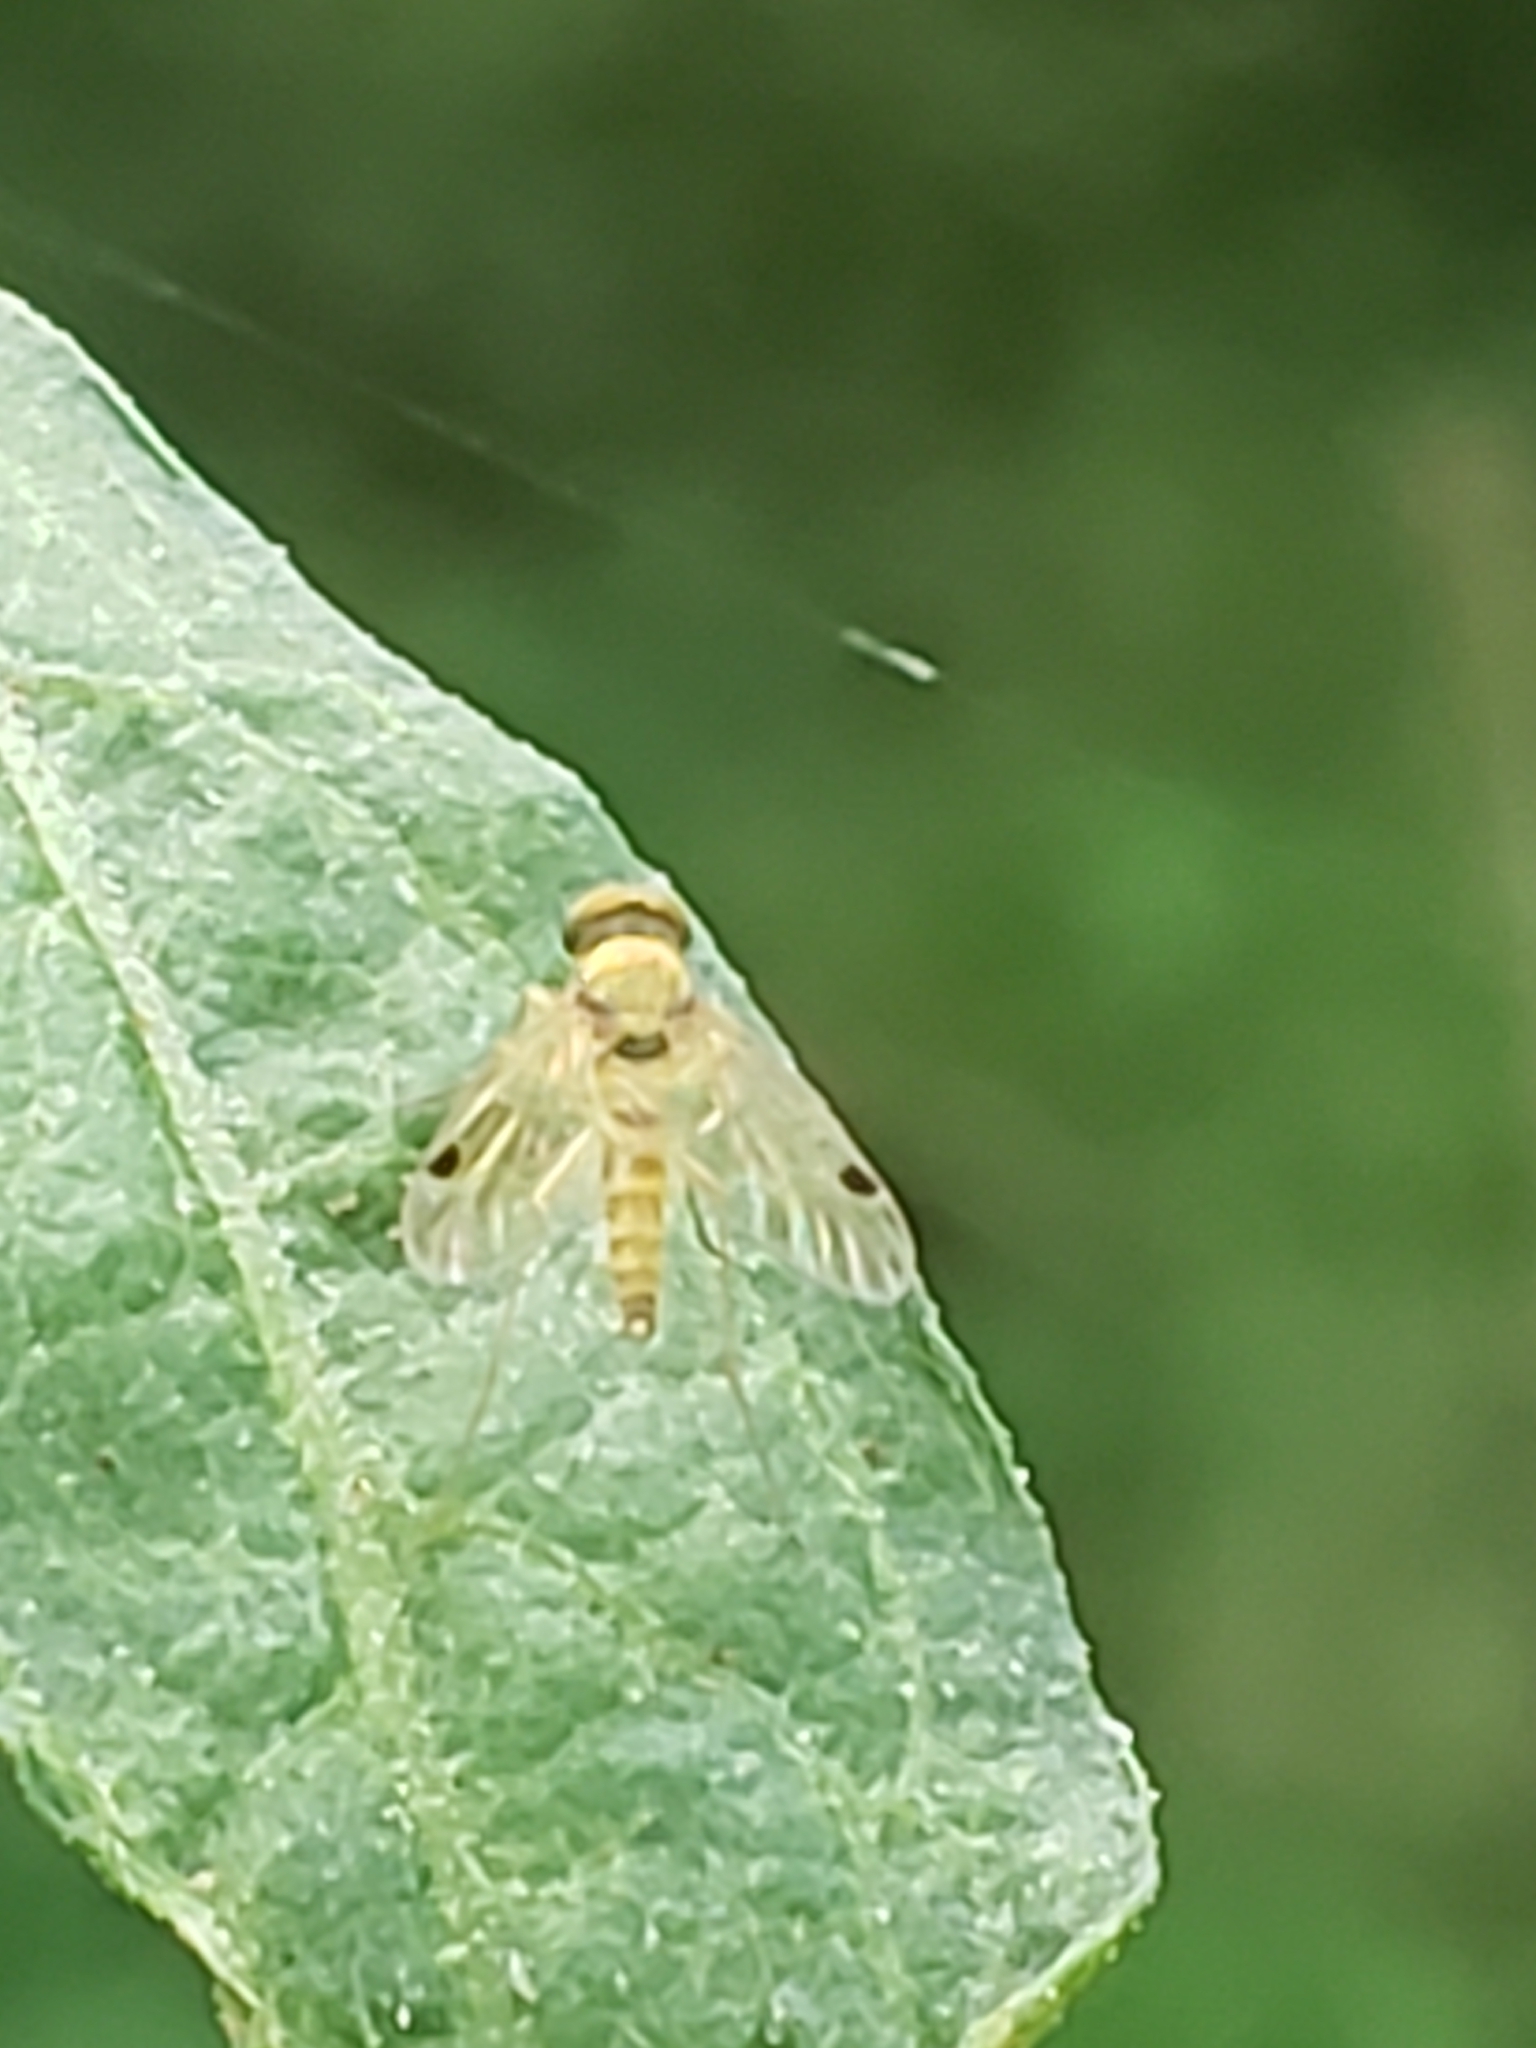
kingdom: Animalia
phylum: Arthropoda
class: Insecta
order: Diptera
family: Rhagionidae
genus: Chrysopilus
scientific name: Chrysopilus modestus
